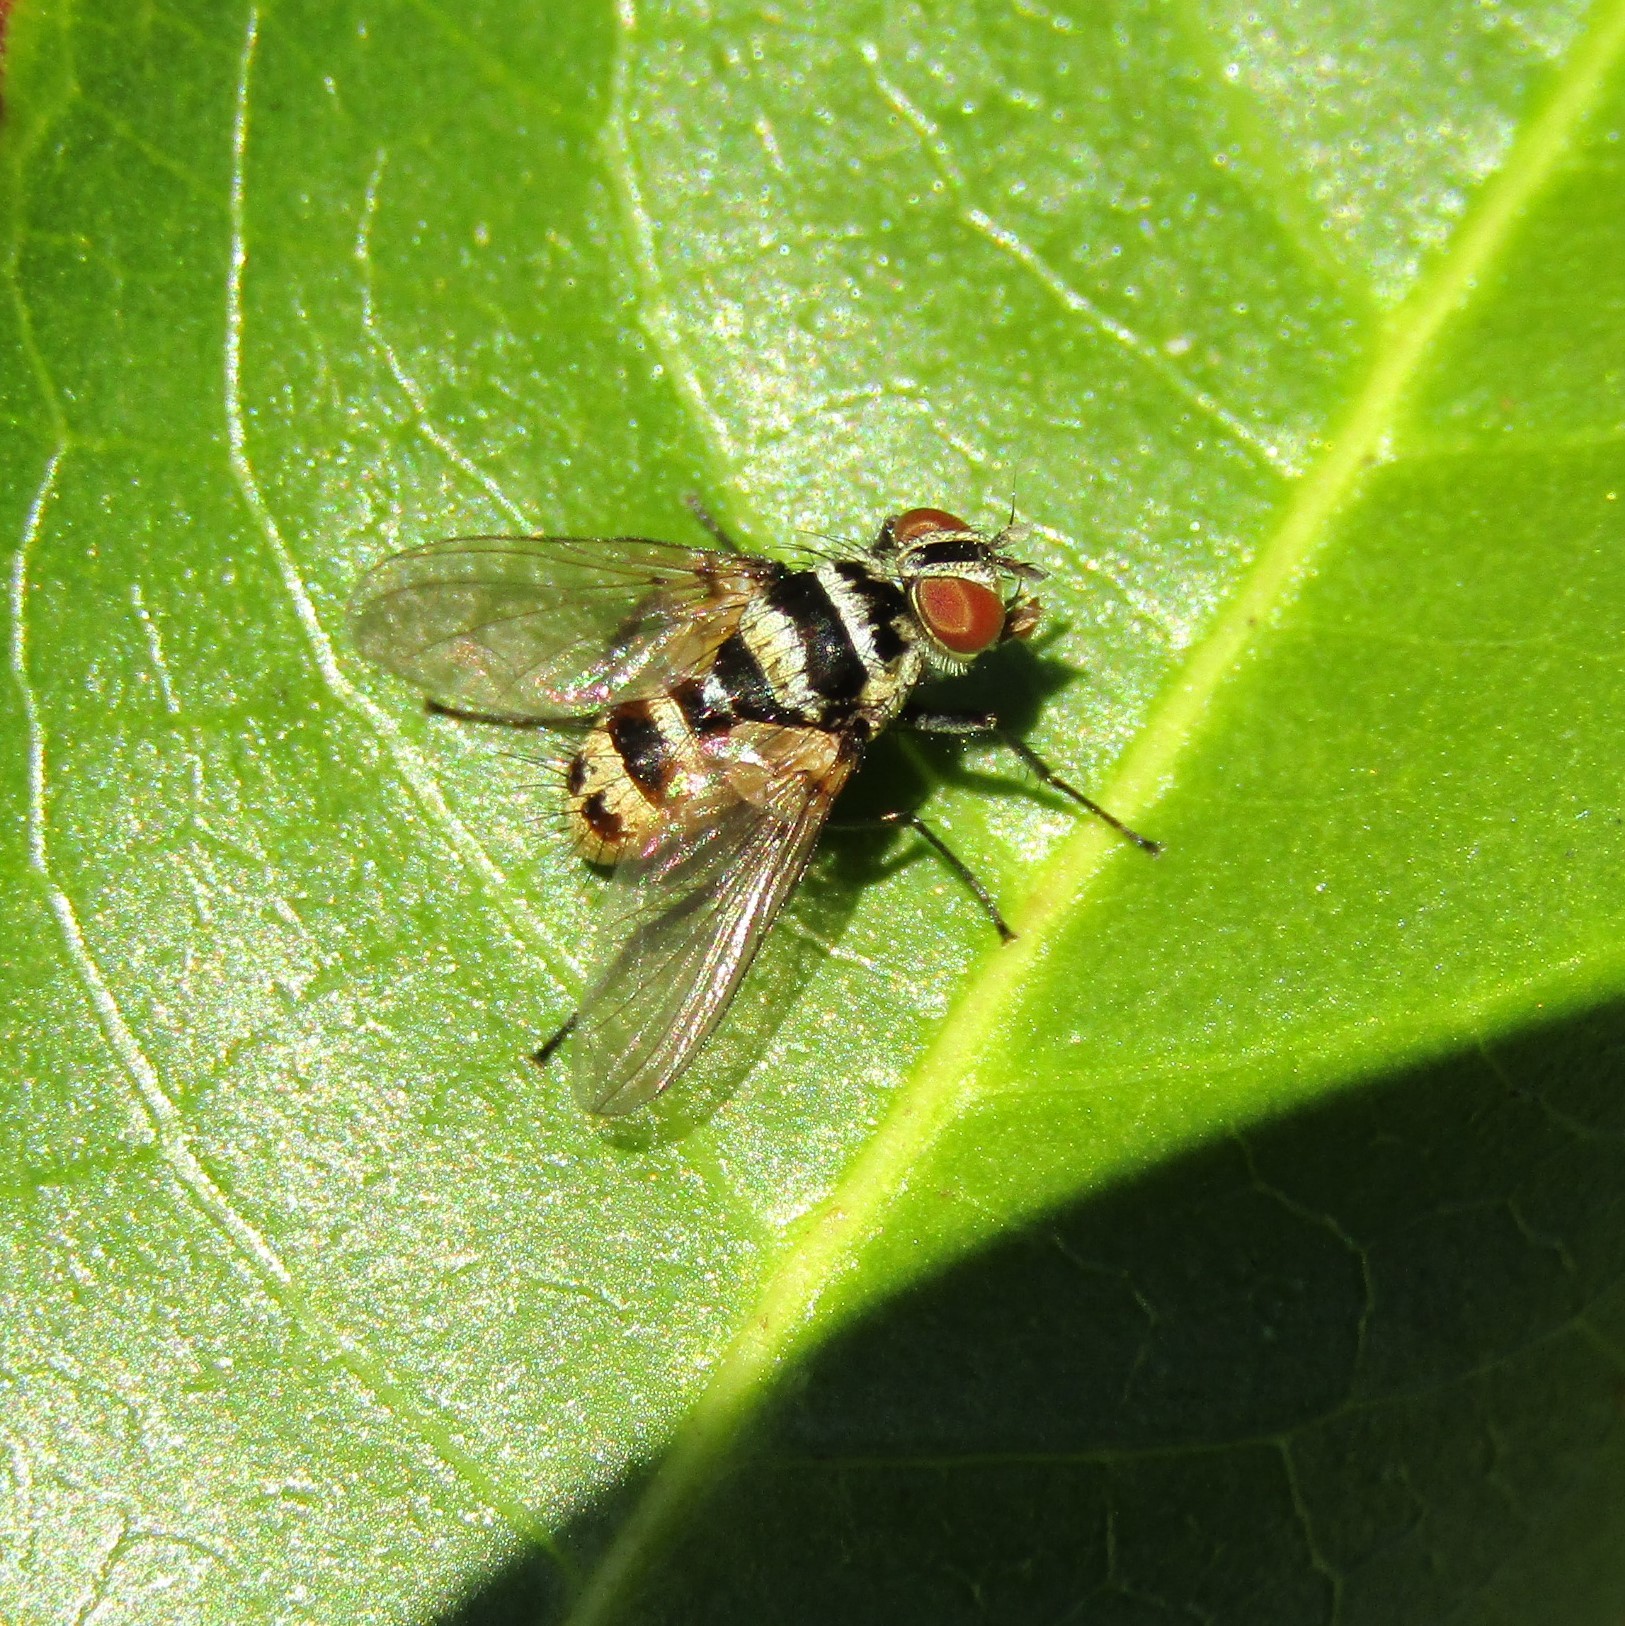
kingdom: Animalia
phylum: Arthropoda
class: Insecta
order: Diptera
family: Tachinidae
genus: Trigonospila
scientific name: Trigonospila brevifacies
